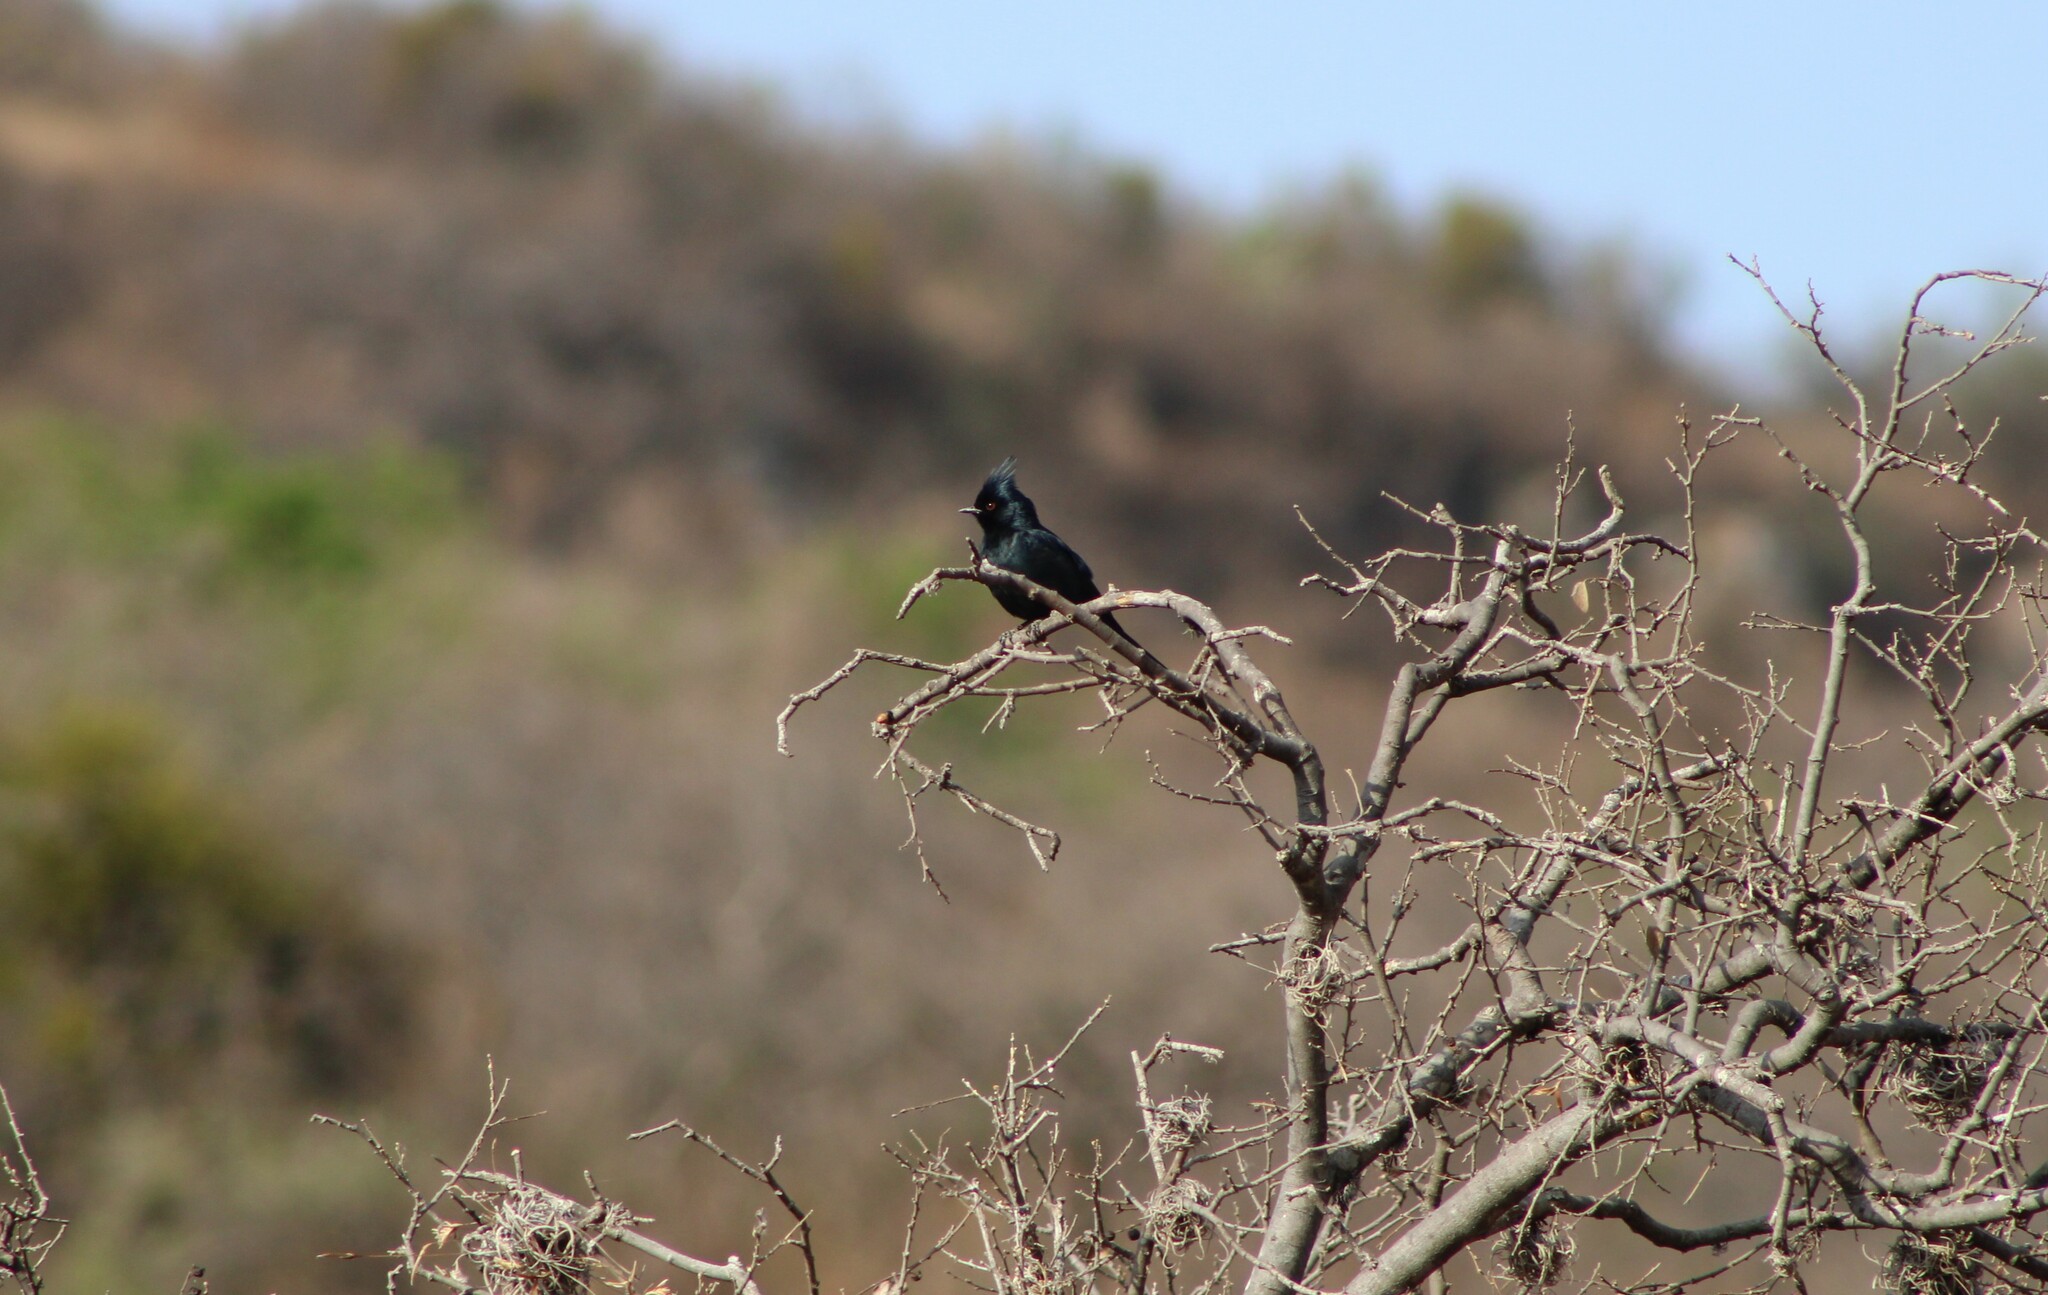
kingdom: Animalia
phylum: Chordata
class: Aves
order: Passeriformes
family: Ptilogonatidae
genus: Phainopepla
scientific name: Phainopepla nitens
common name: Phainopepla
